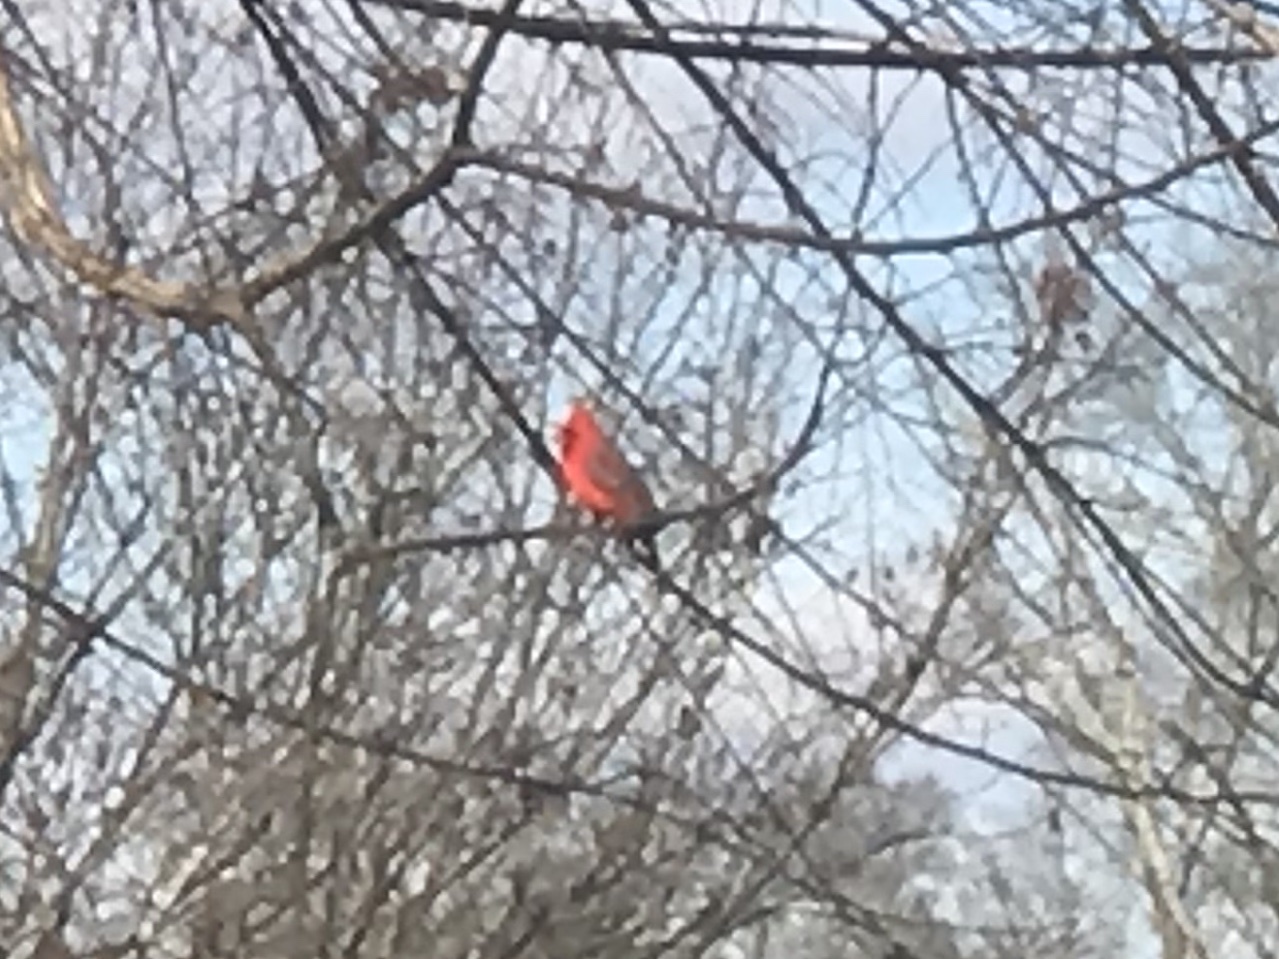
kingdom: Animalia
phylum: Chordata
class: Aves
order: Passeriformes
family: Cardinalidae
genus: Cardinalis
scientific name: Cardinalis cardinalis
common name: Northern cardinal
